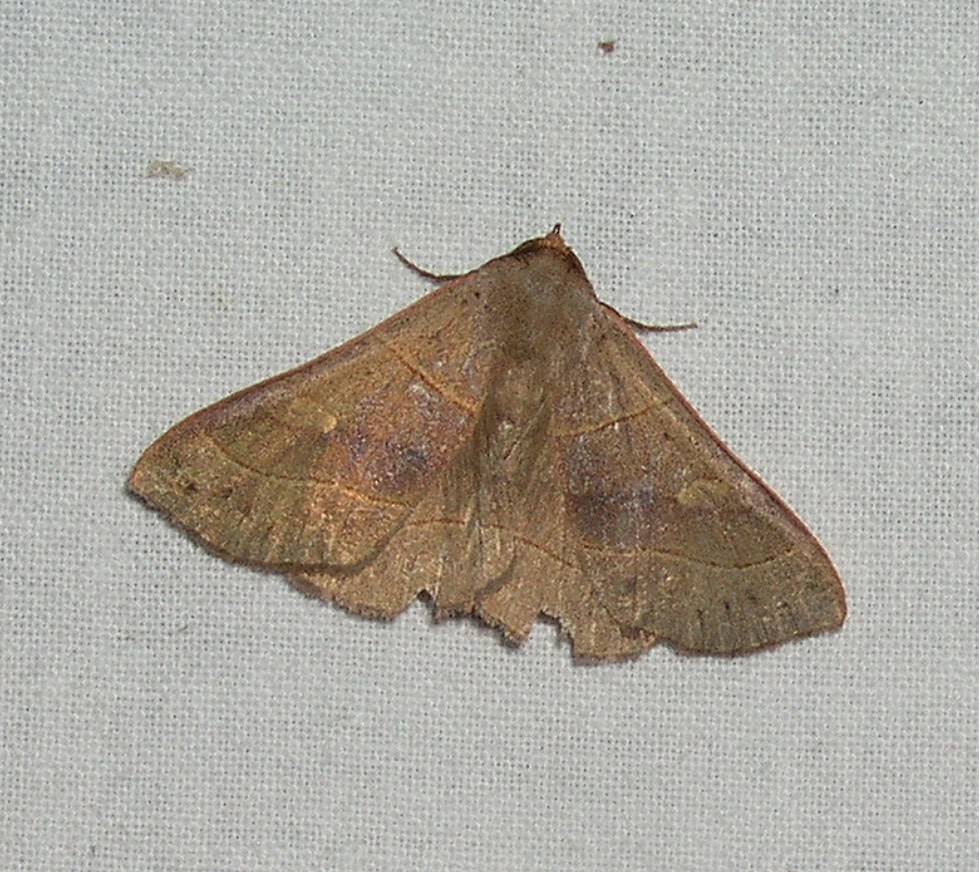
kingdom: Animalia
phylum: Arthropoda
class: Insecta
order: Lepidoptera
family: Erebidae
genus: Panopoda
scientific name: Panopoda rufimargo
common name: Red-lined panopoda moth
